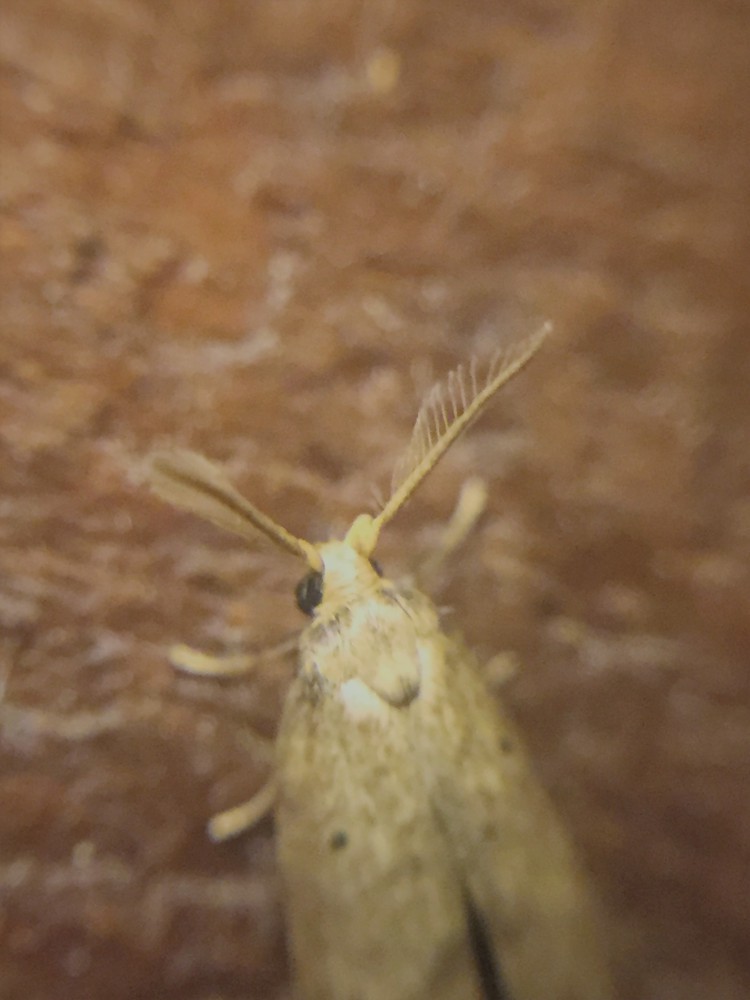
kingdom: Animalia
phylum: Arthropoda
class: Insecta
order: Lepidoptera
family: Galacticidae
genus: Tanaoctena
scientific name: Tanaoctena dubia
